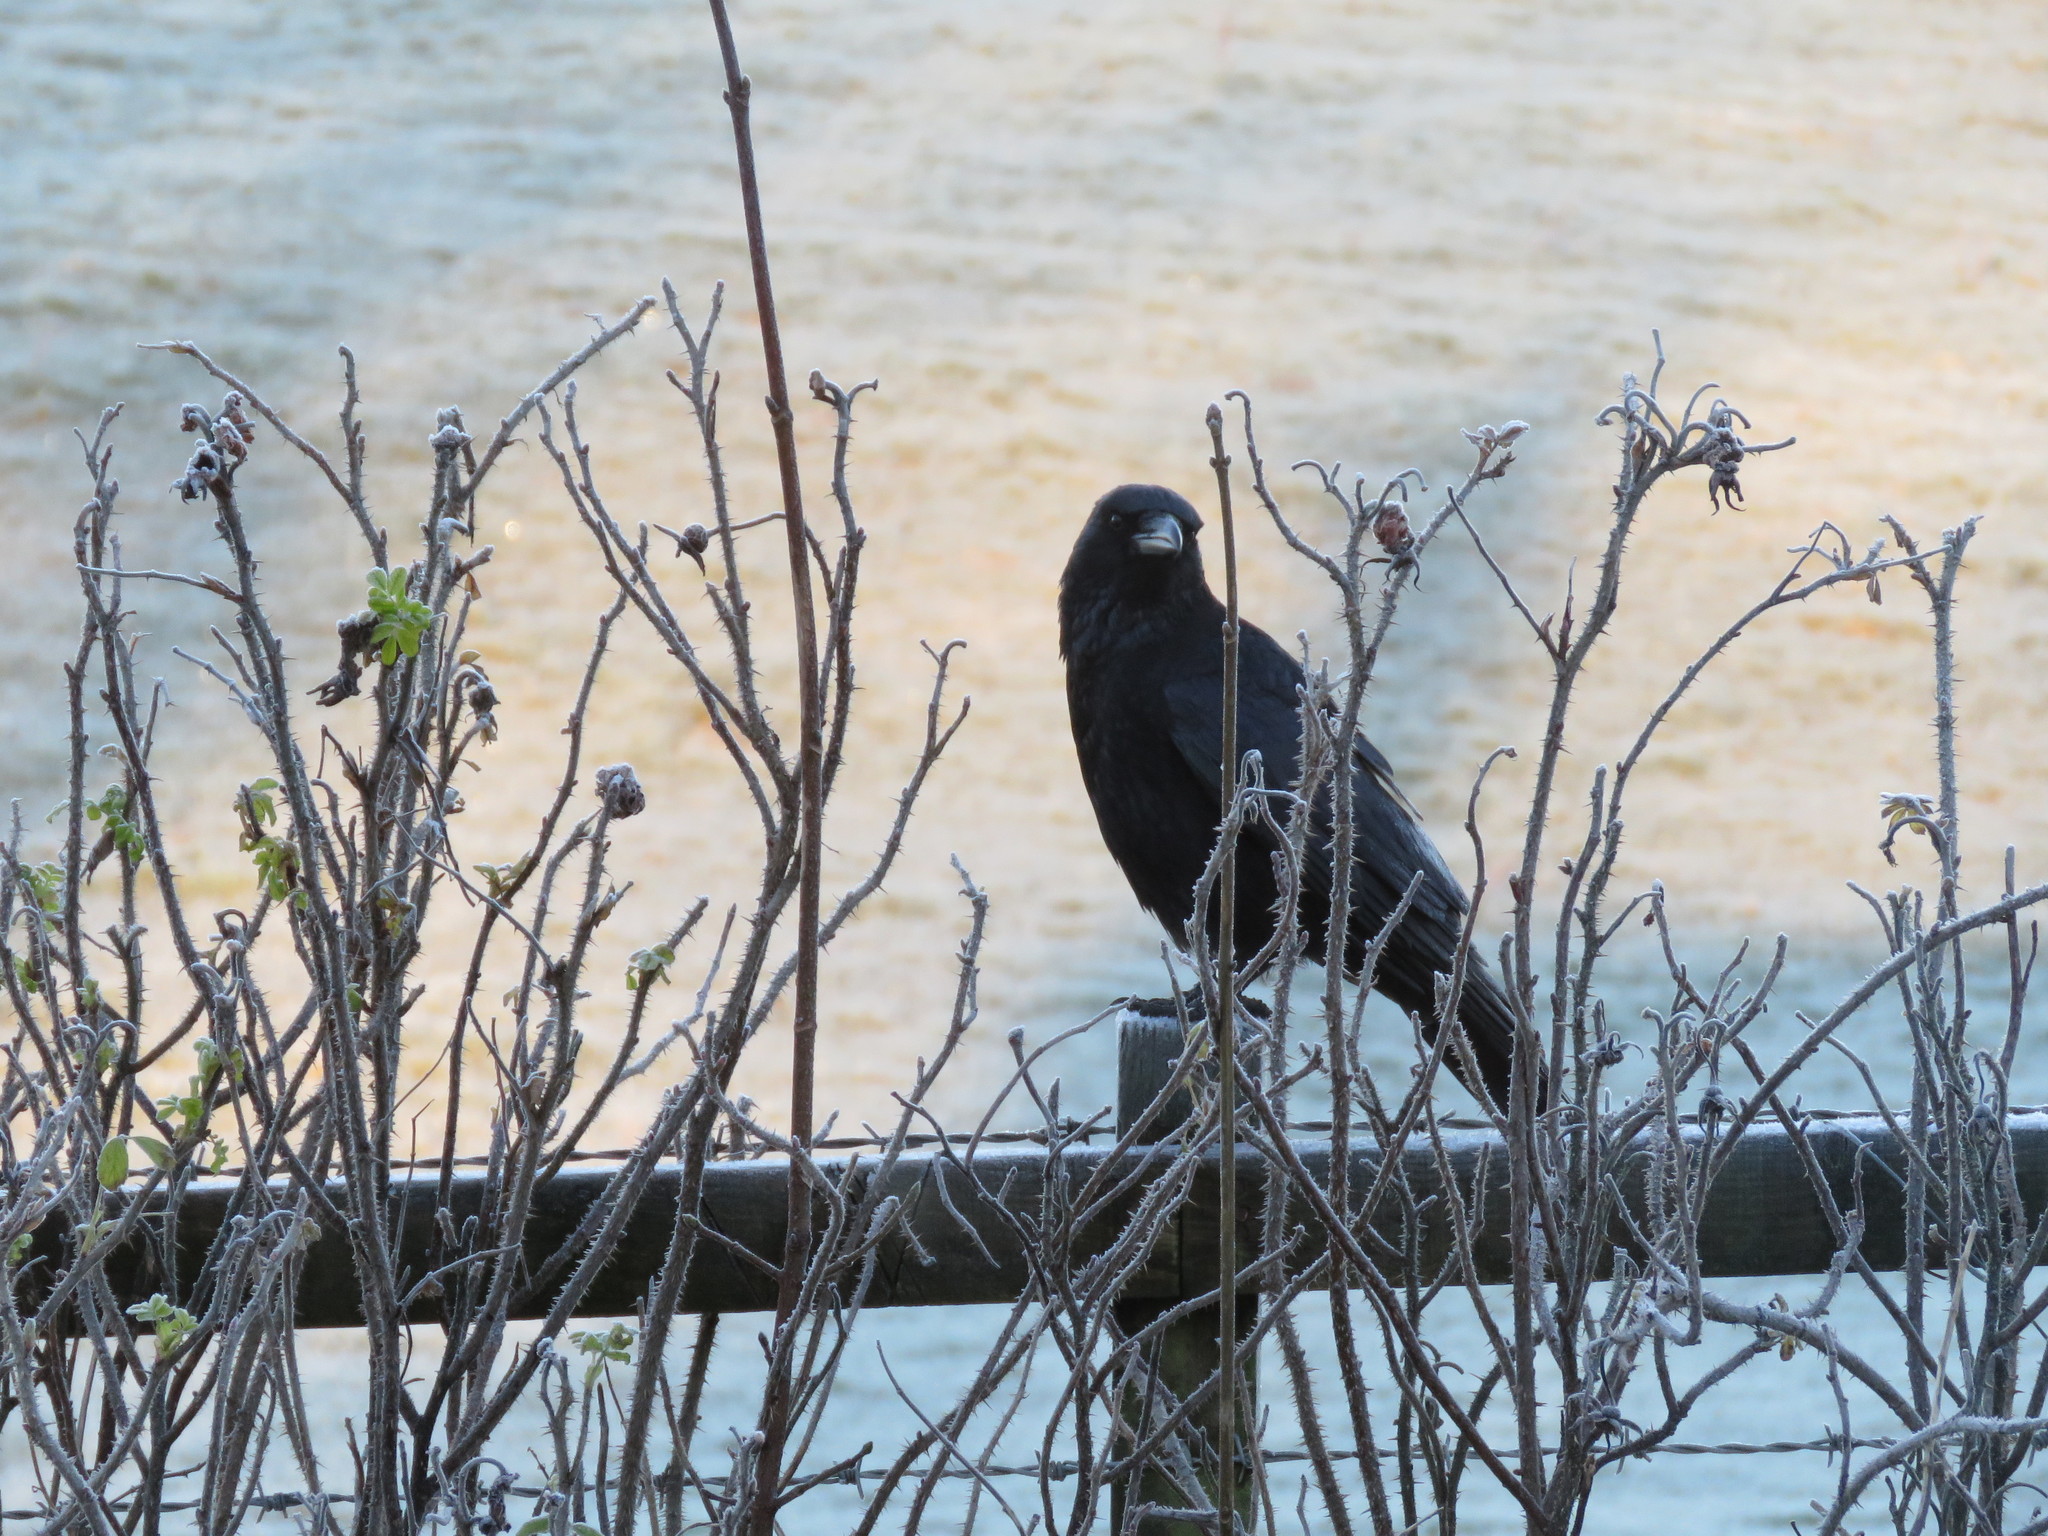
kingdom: Animalia
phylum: Chordata
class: Aves
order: Passeriformes
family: Corvidae
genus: Corvus
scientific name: Corvus corone
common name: Carrion crow
